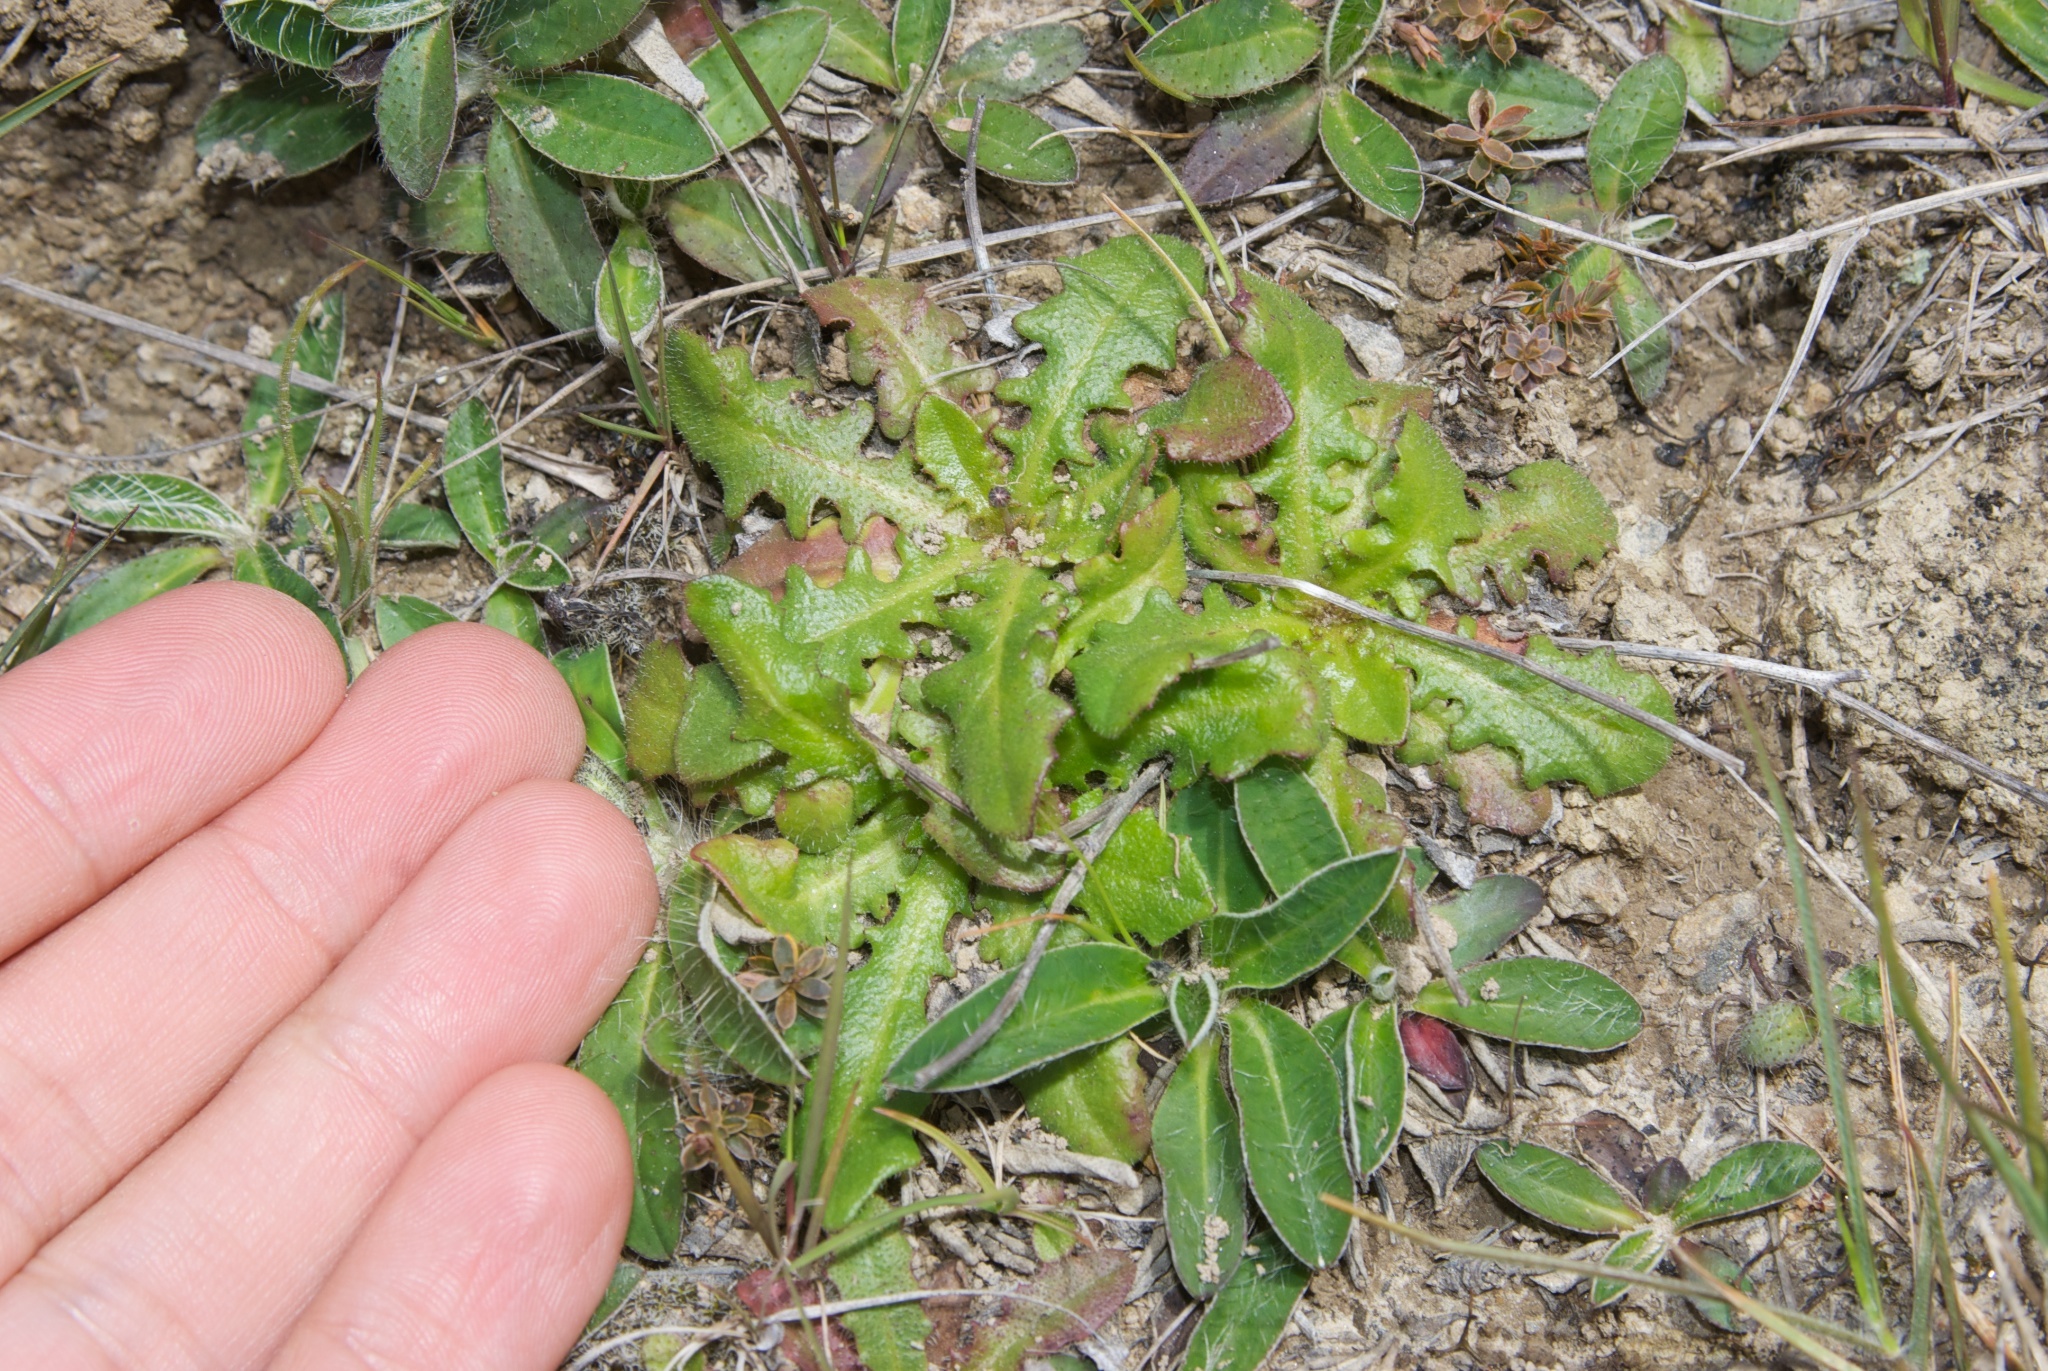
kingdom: Plantae
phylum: Tracheophyta
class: Magnoliopsida
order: Asterales
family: Asteraceae
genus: Hypochaeris
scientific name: Hypochaeris radicata
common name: Flatweed
